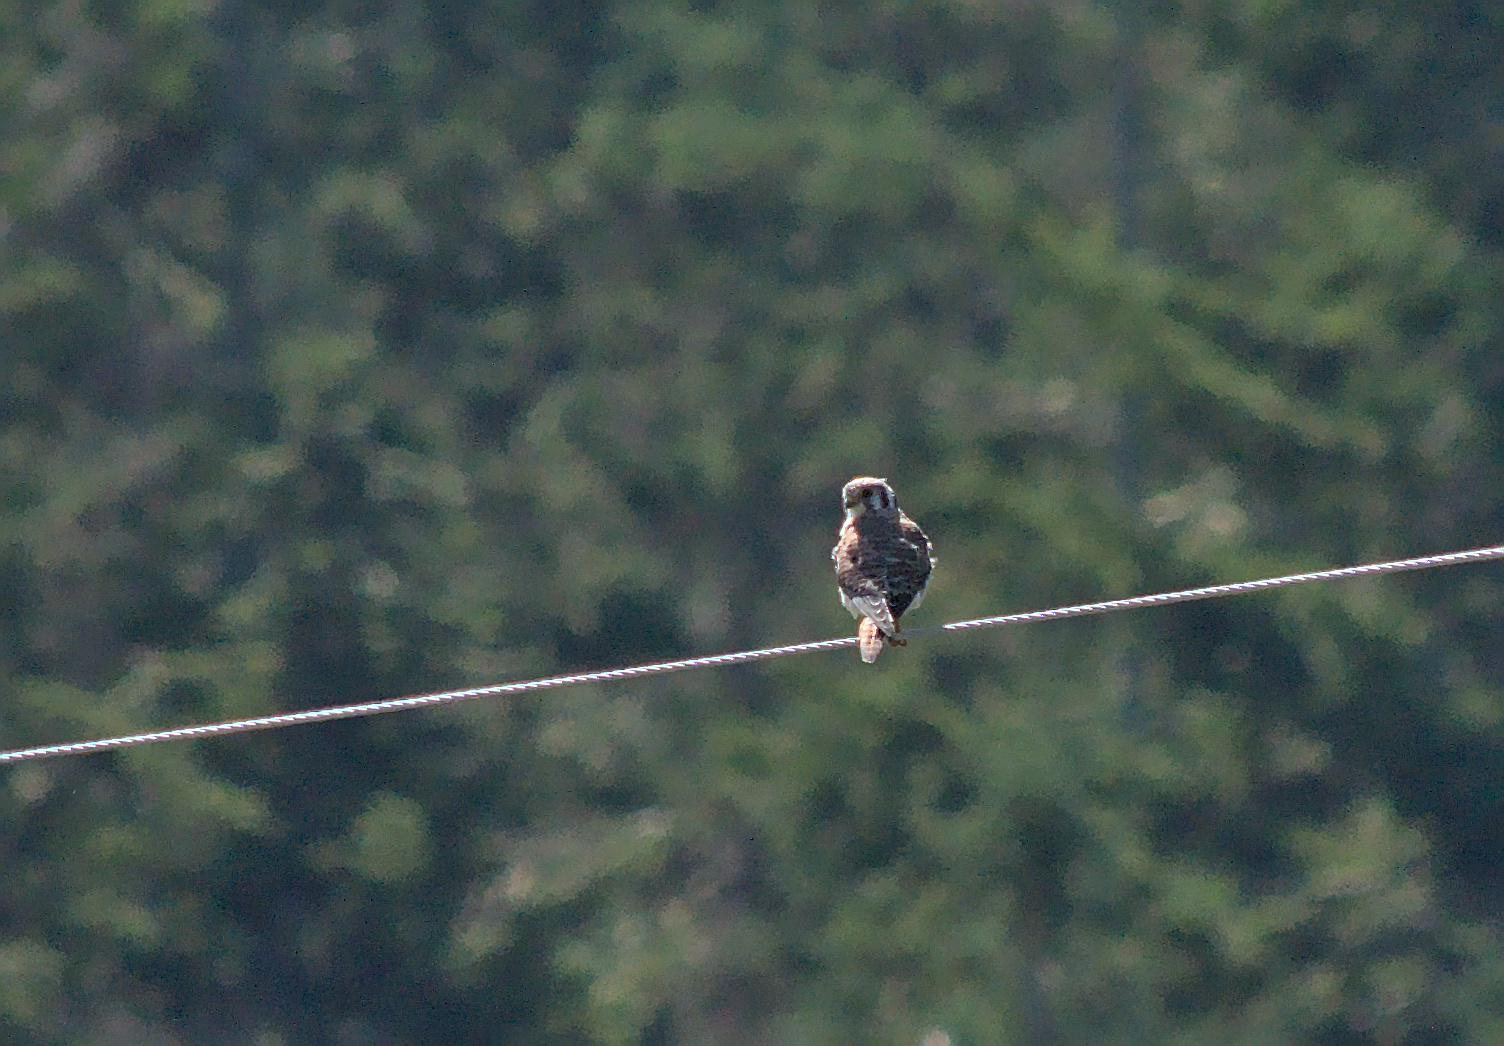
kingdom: Animalia
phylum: Chordata
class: Aves
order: Falconiformes
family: Falconidae
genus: Falco
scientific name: Falco sparverius
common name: American kestrel
